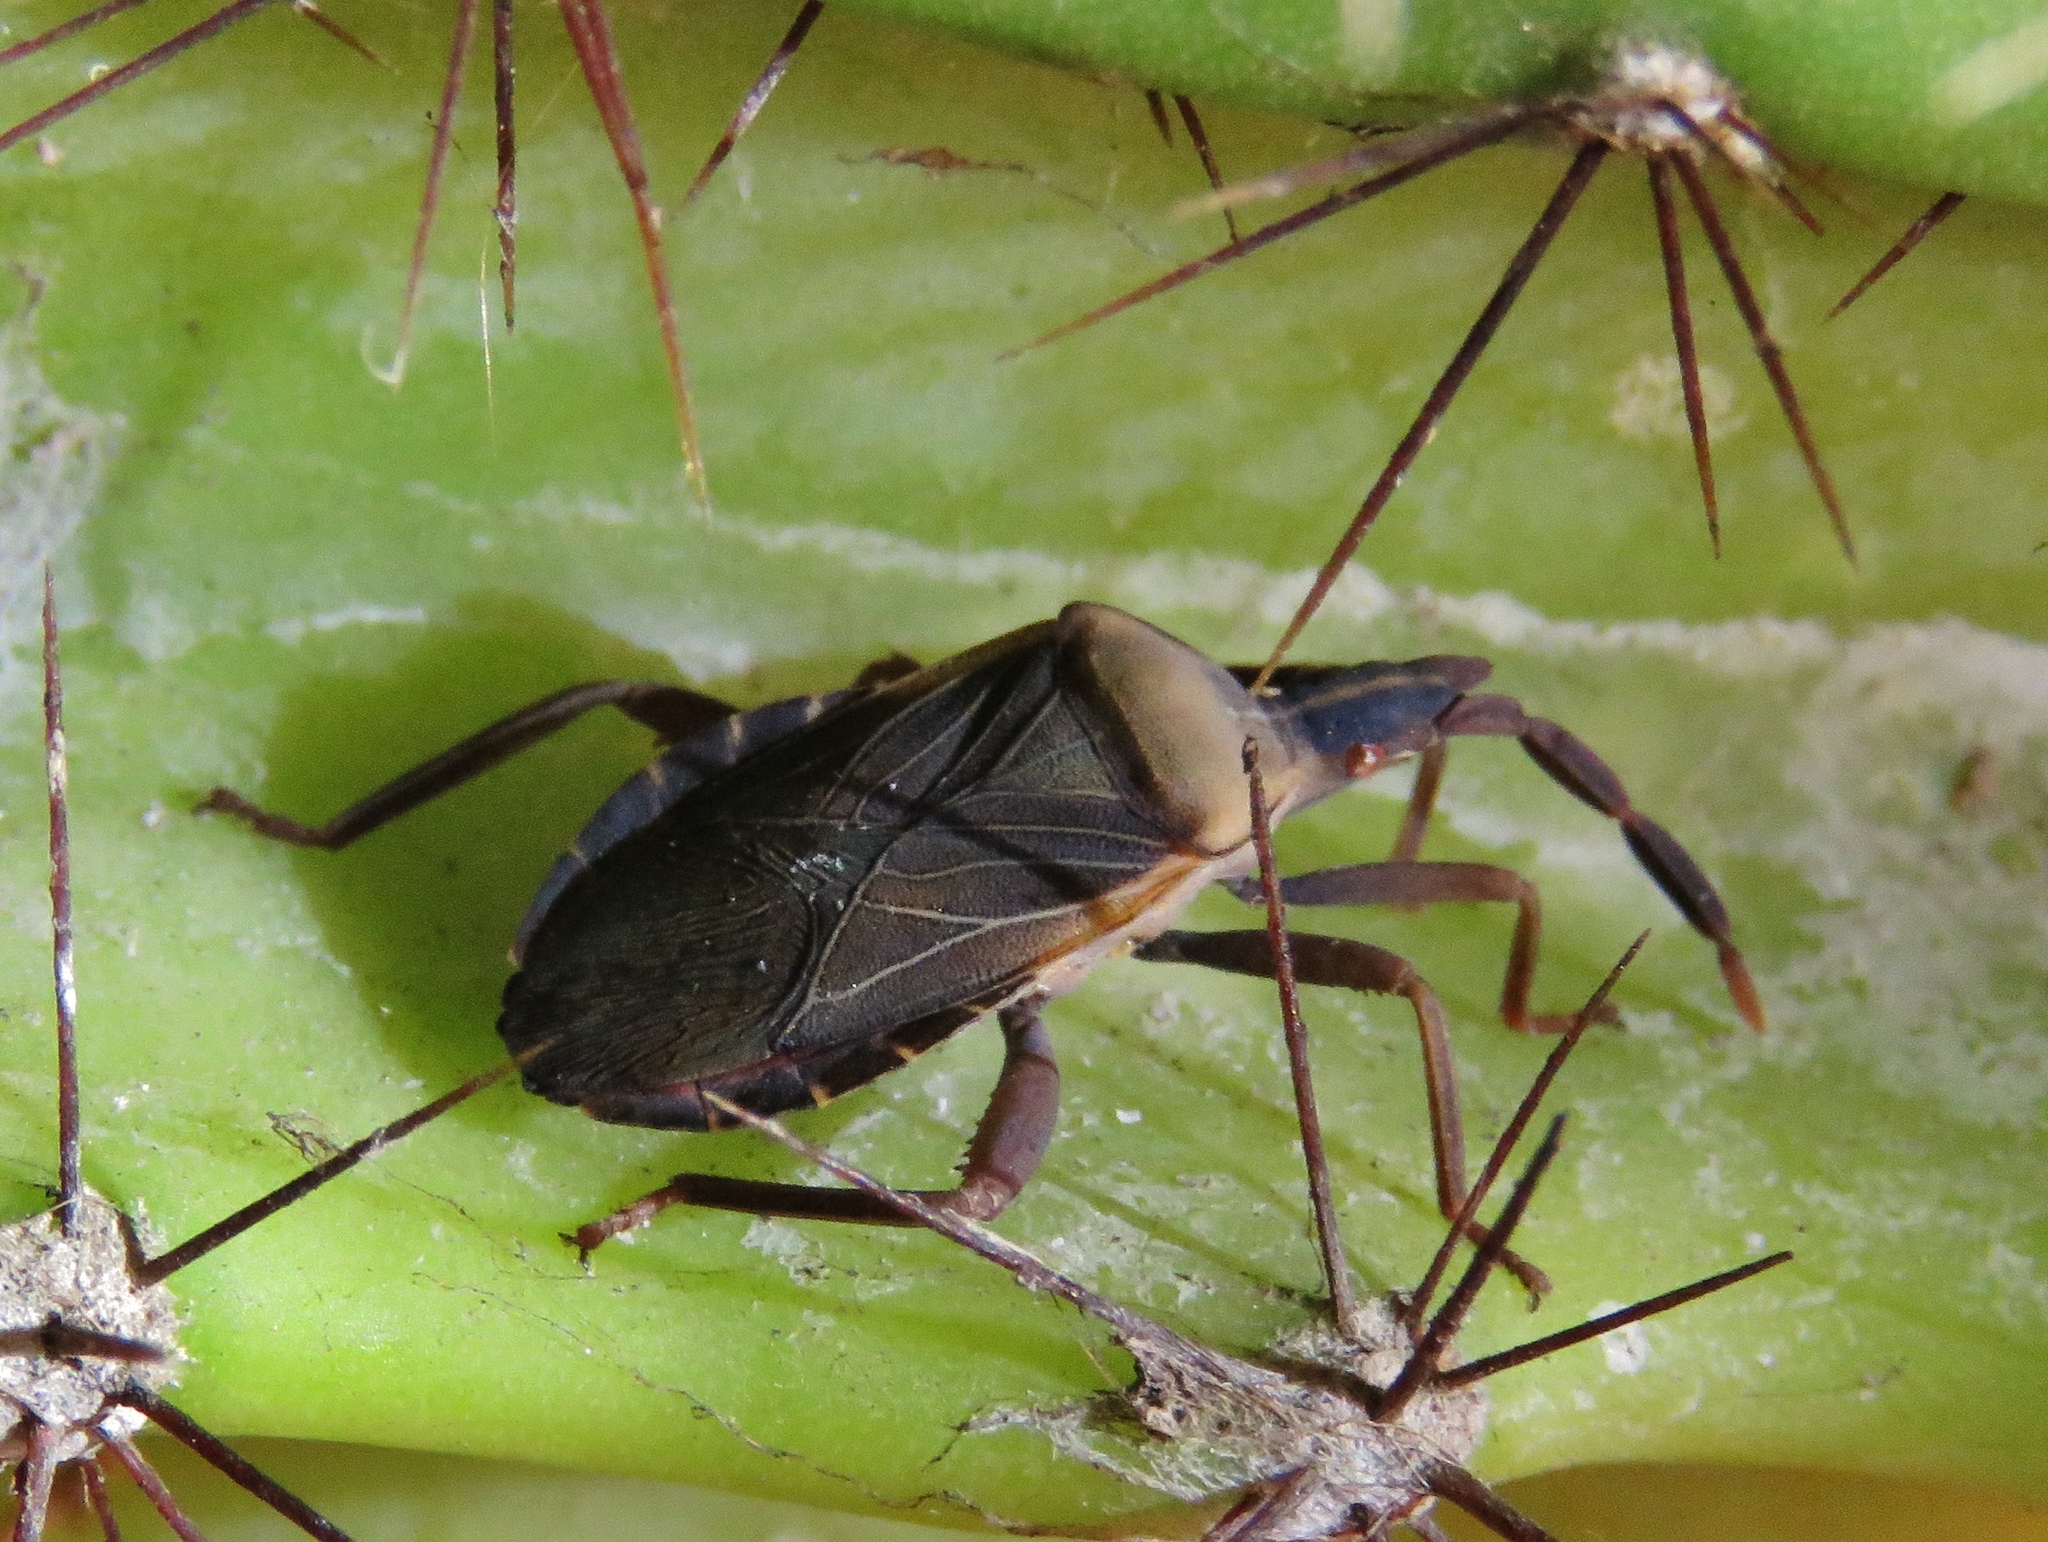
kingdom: Animalia
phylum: Arthropoda
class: Insecta
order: Hemiptera
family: Coreidae
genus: Chelinidea
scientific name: Chelinidea vittiger
